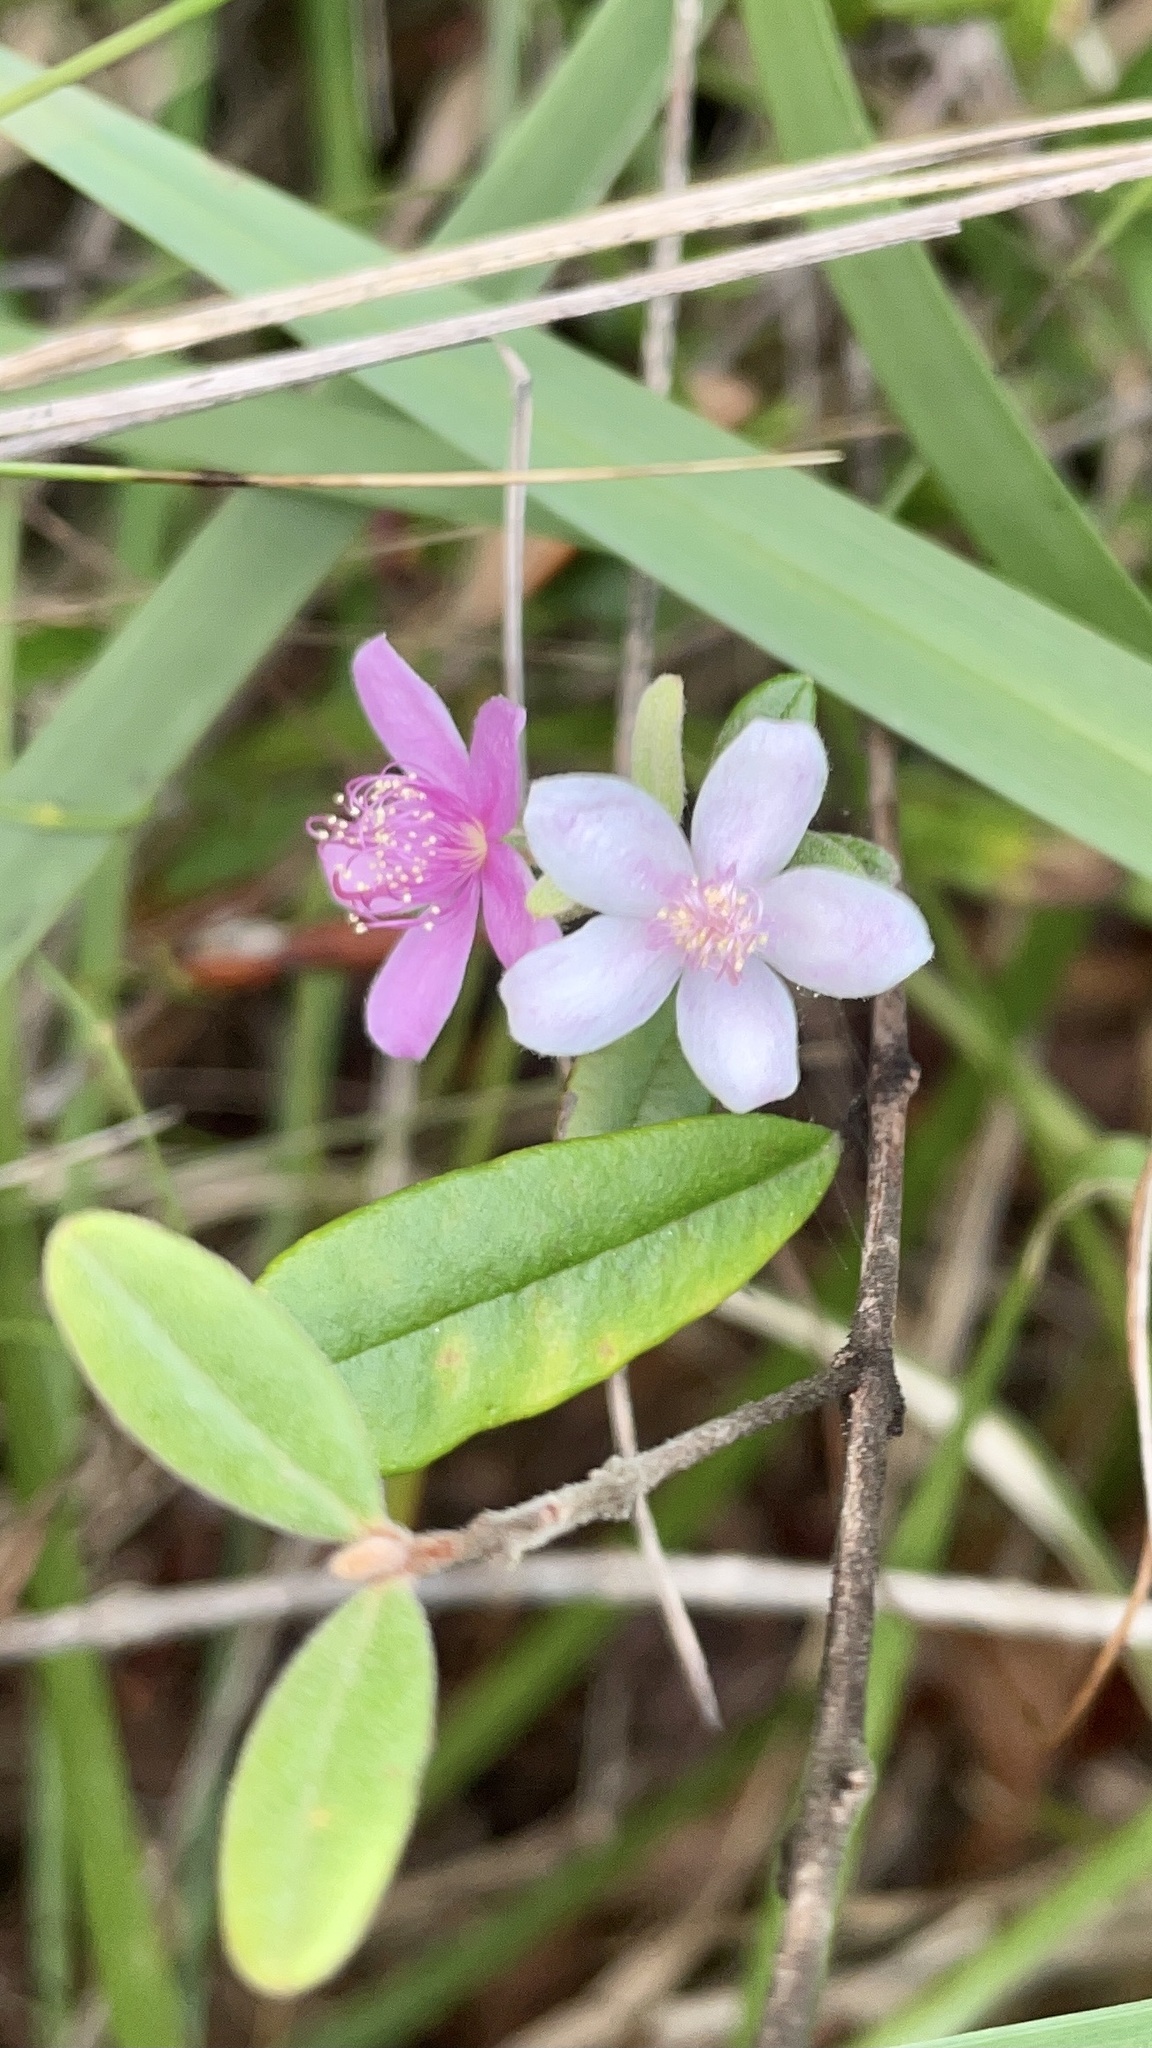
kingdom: Plantae
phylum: Tracheophyta
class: Magnoliopsida
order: Myrtales
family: Myrtaceae
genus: Lithomyrtus
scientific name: Lithomyrtus obtusa
